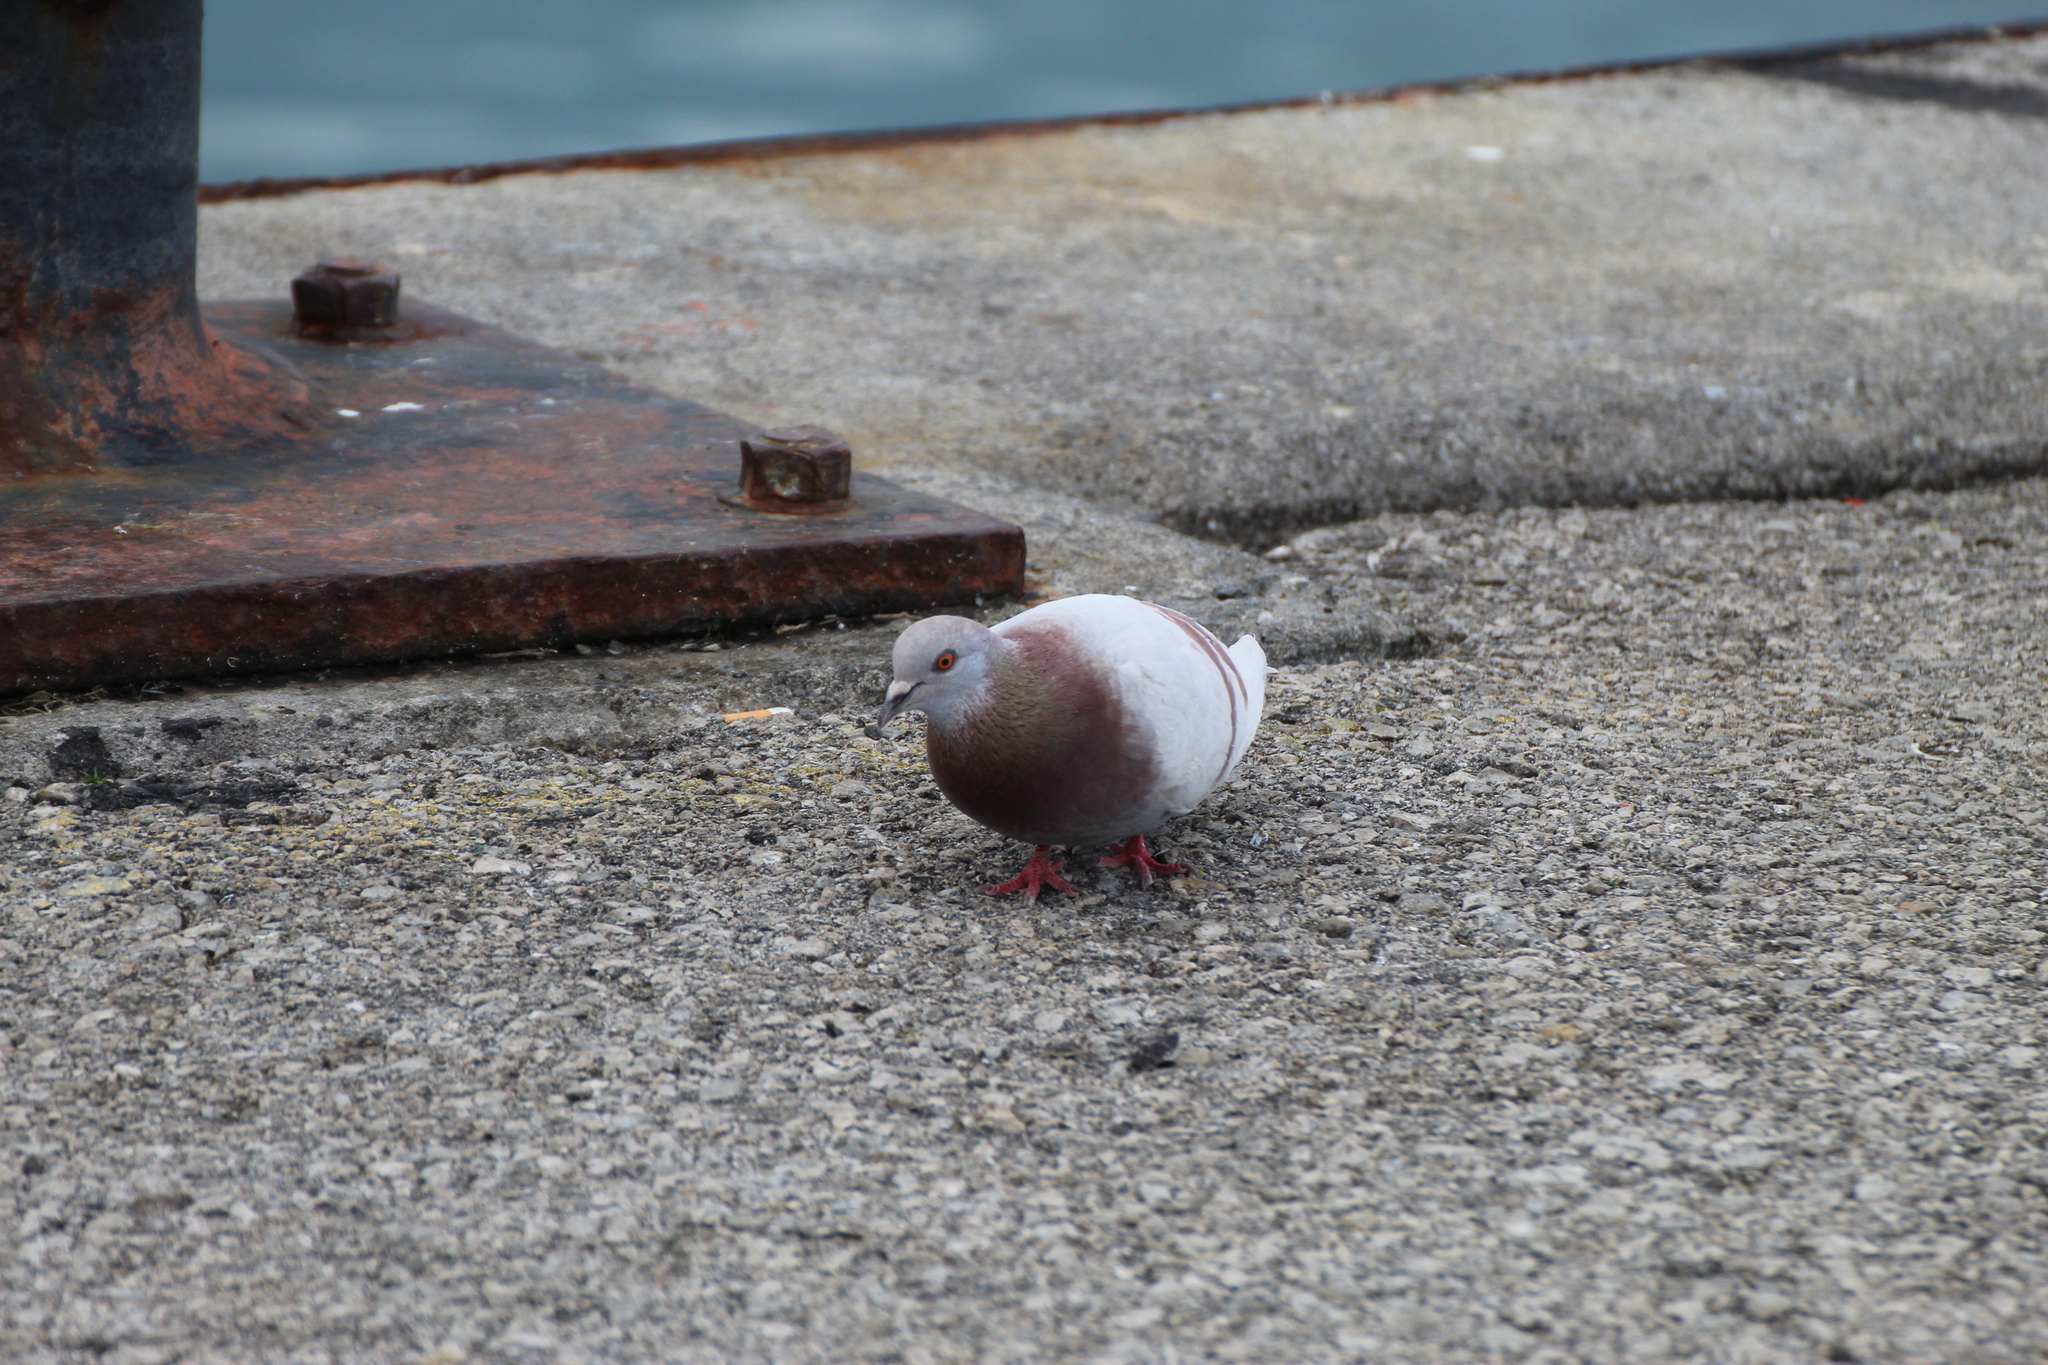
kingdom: Animalia
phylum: Chordata
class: Aves
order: Columbiformes
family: Columbidae
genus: Columba
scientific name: Columba livia
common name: Rock pigeon
